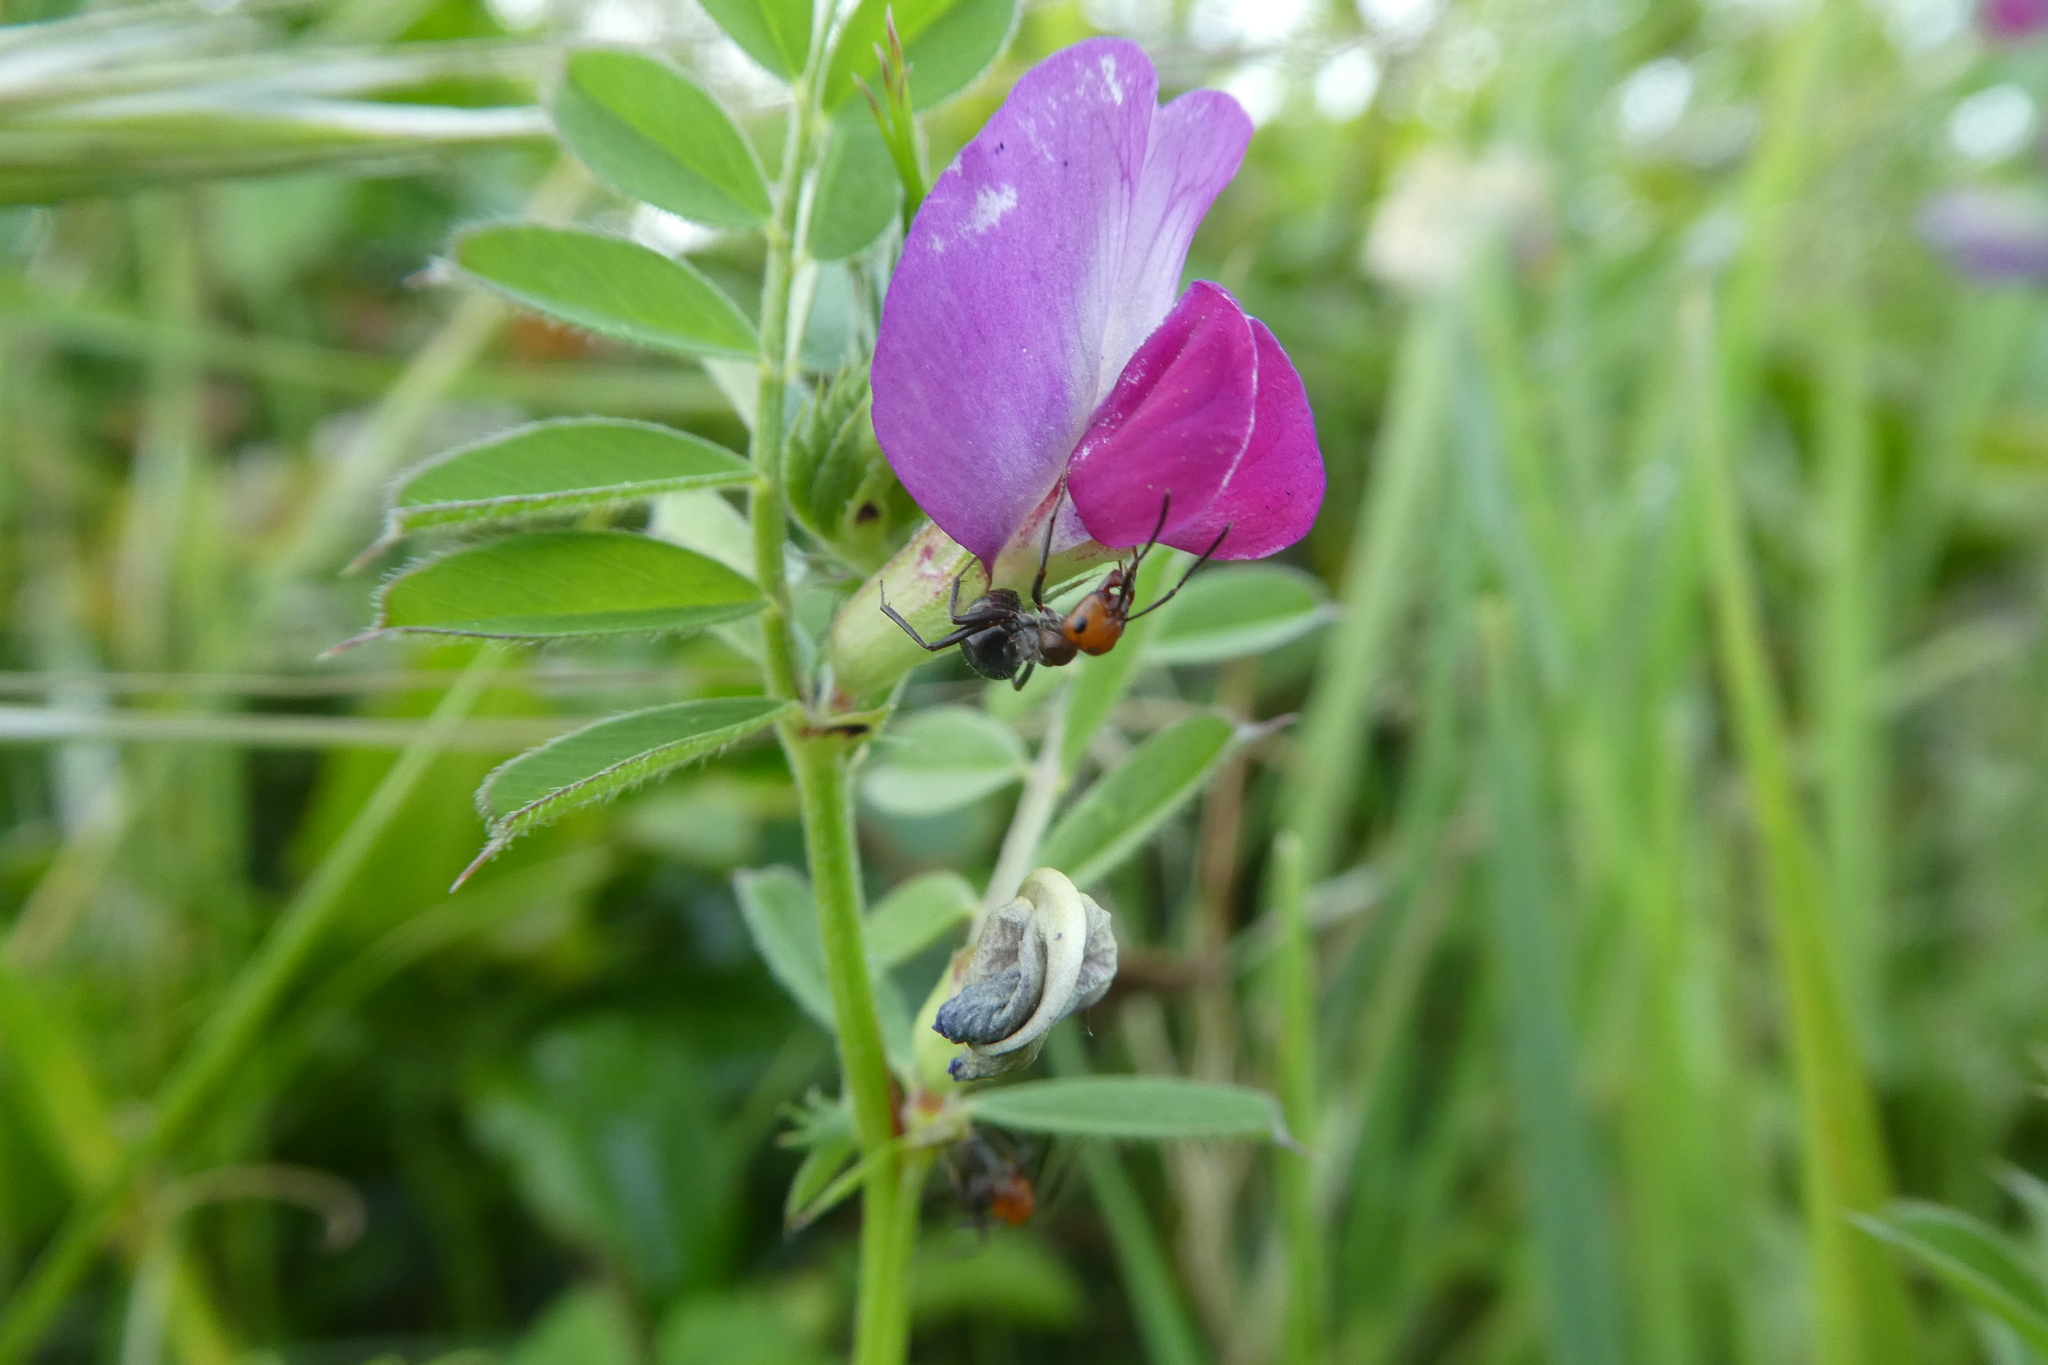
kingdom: Plantae
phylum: Tracheophyta
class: Magnoliopsida
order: Fabales
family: Fabaceae
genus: Vicia
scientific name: Vicia sativa
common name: Garden vetch
